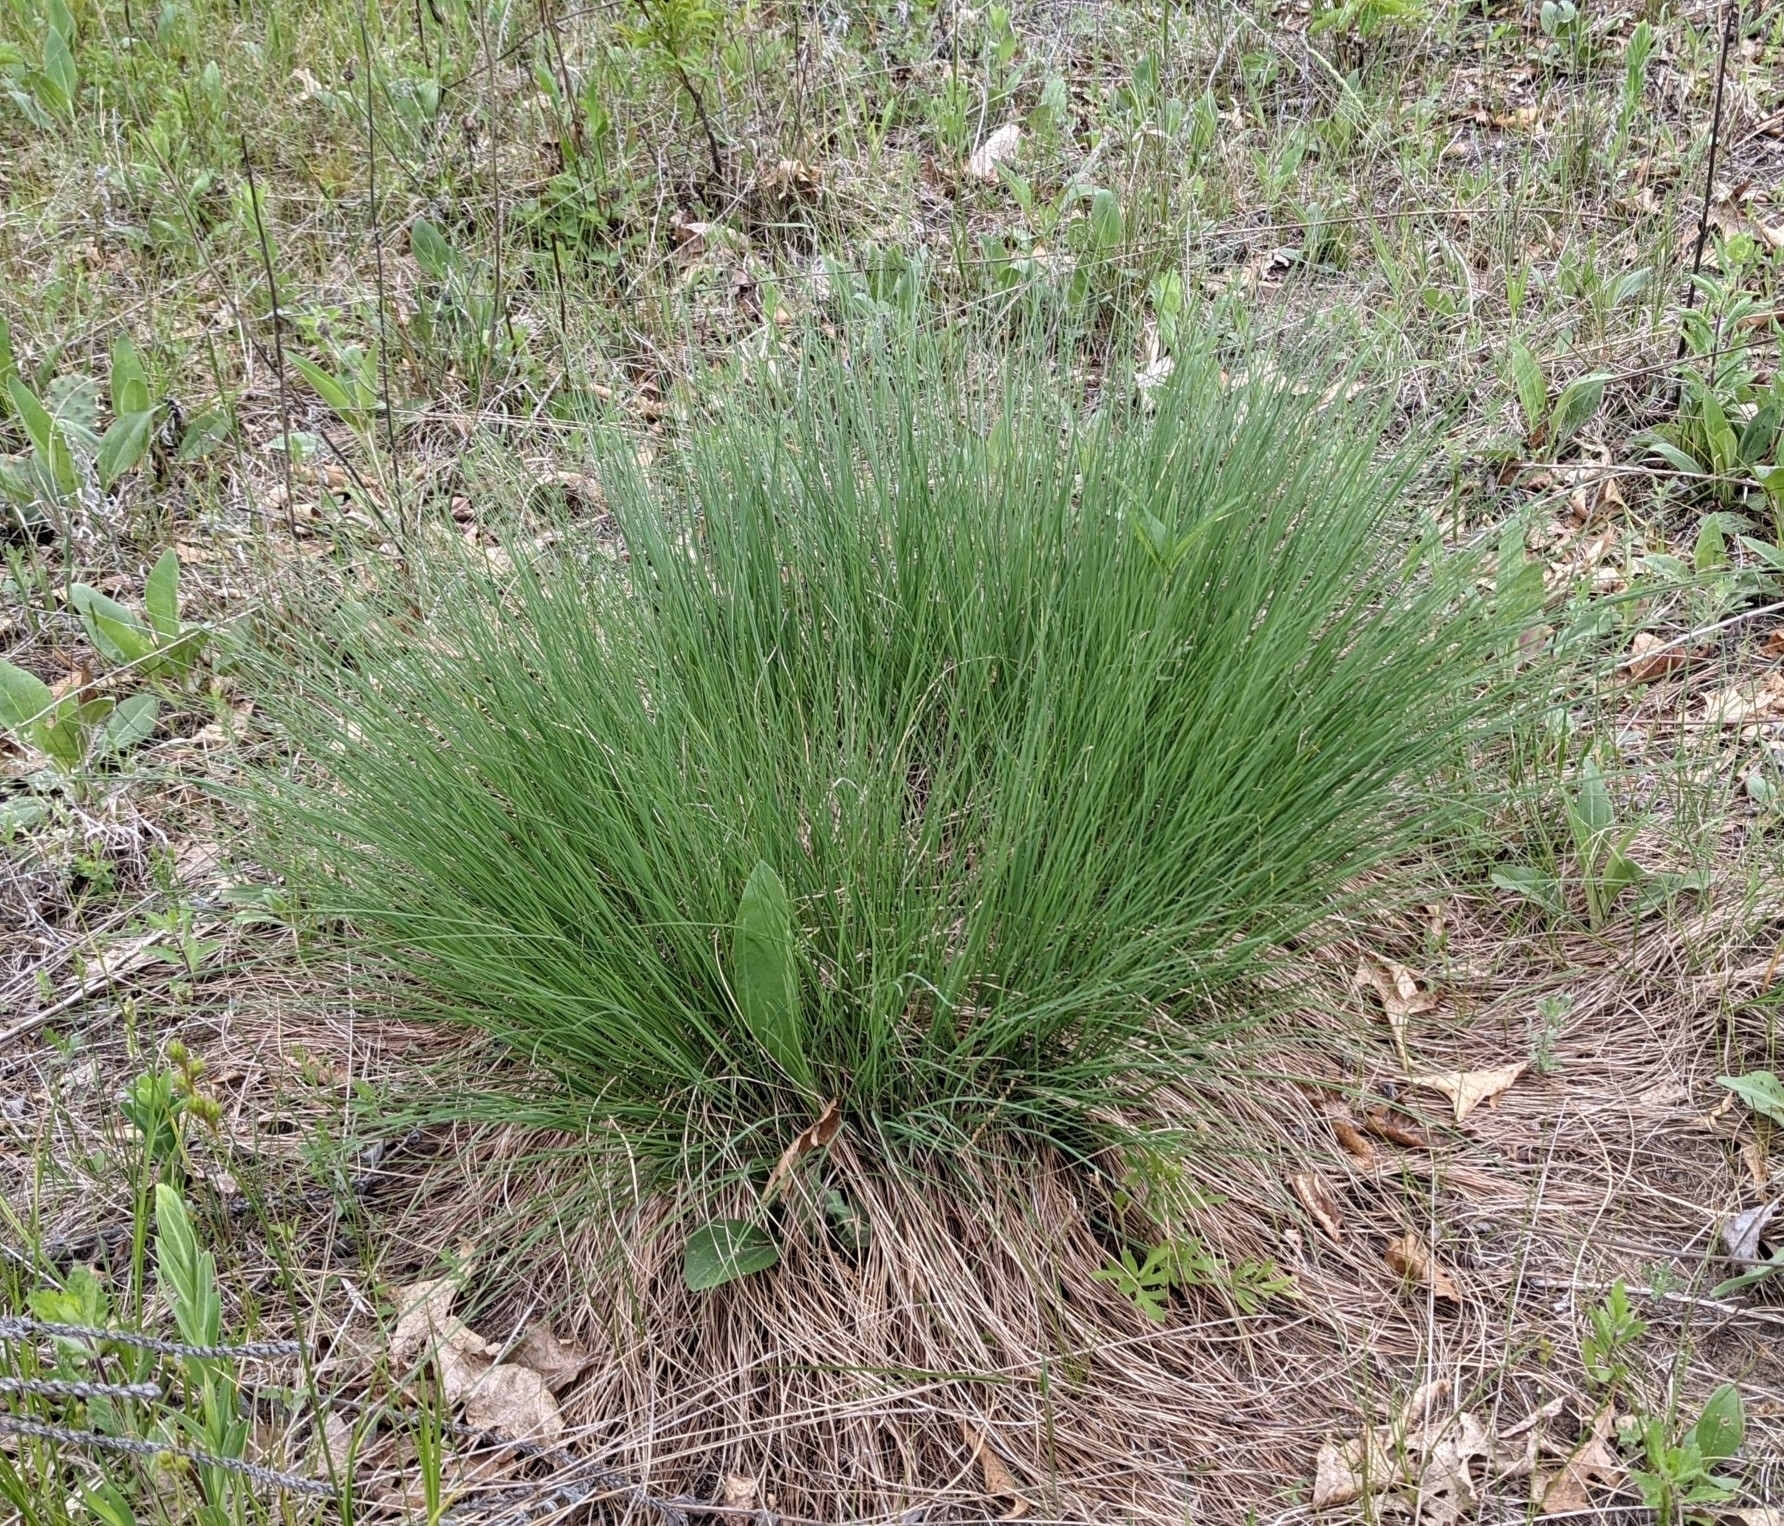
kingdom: Plantae
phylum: Tracheophyta
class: Liliopsida
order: Poales
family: Poaceae
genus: Sporobolus
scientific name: Sporobolus heterolepis
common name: Prairie dropseed
